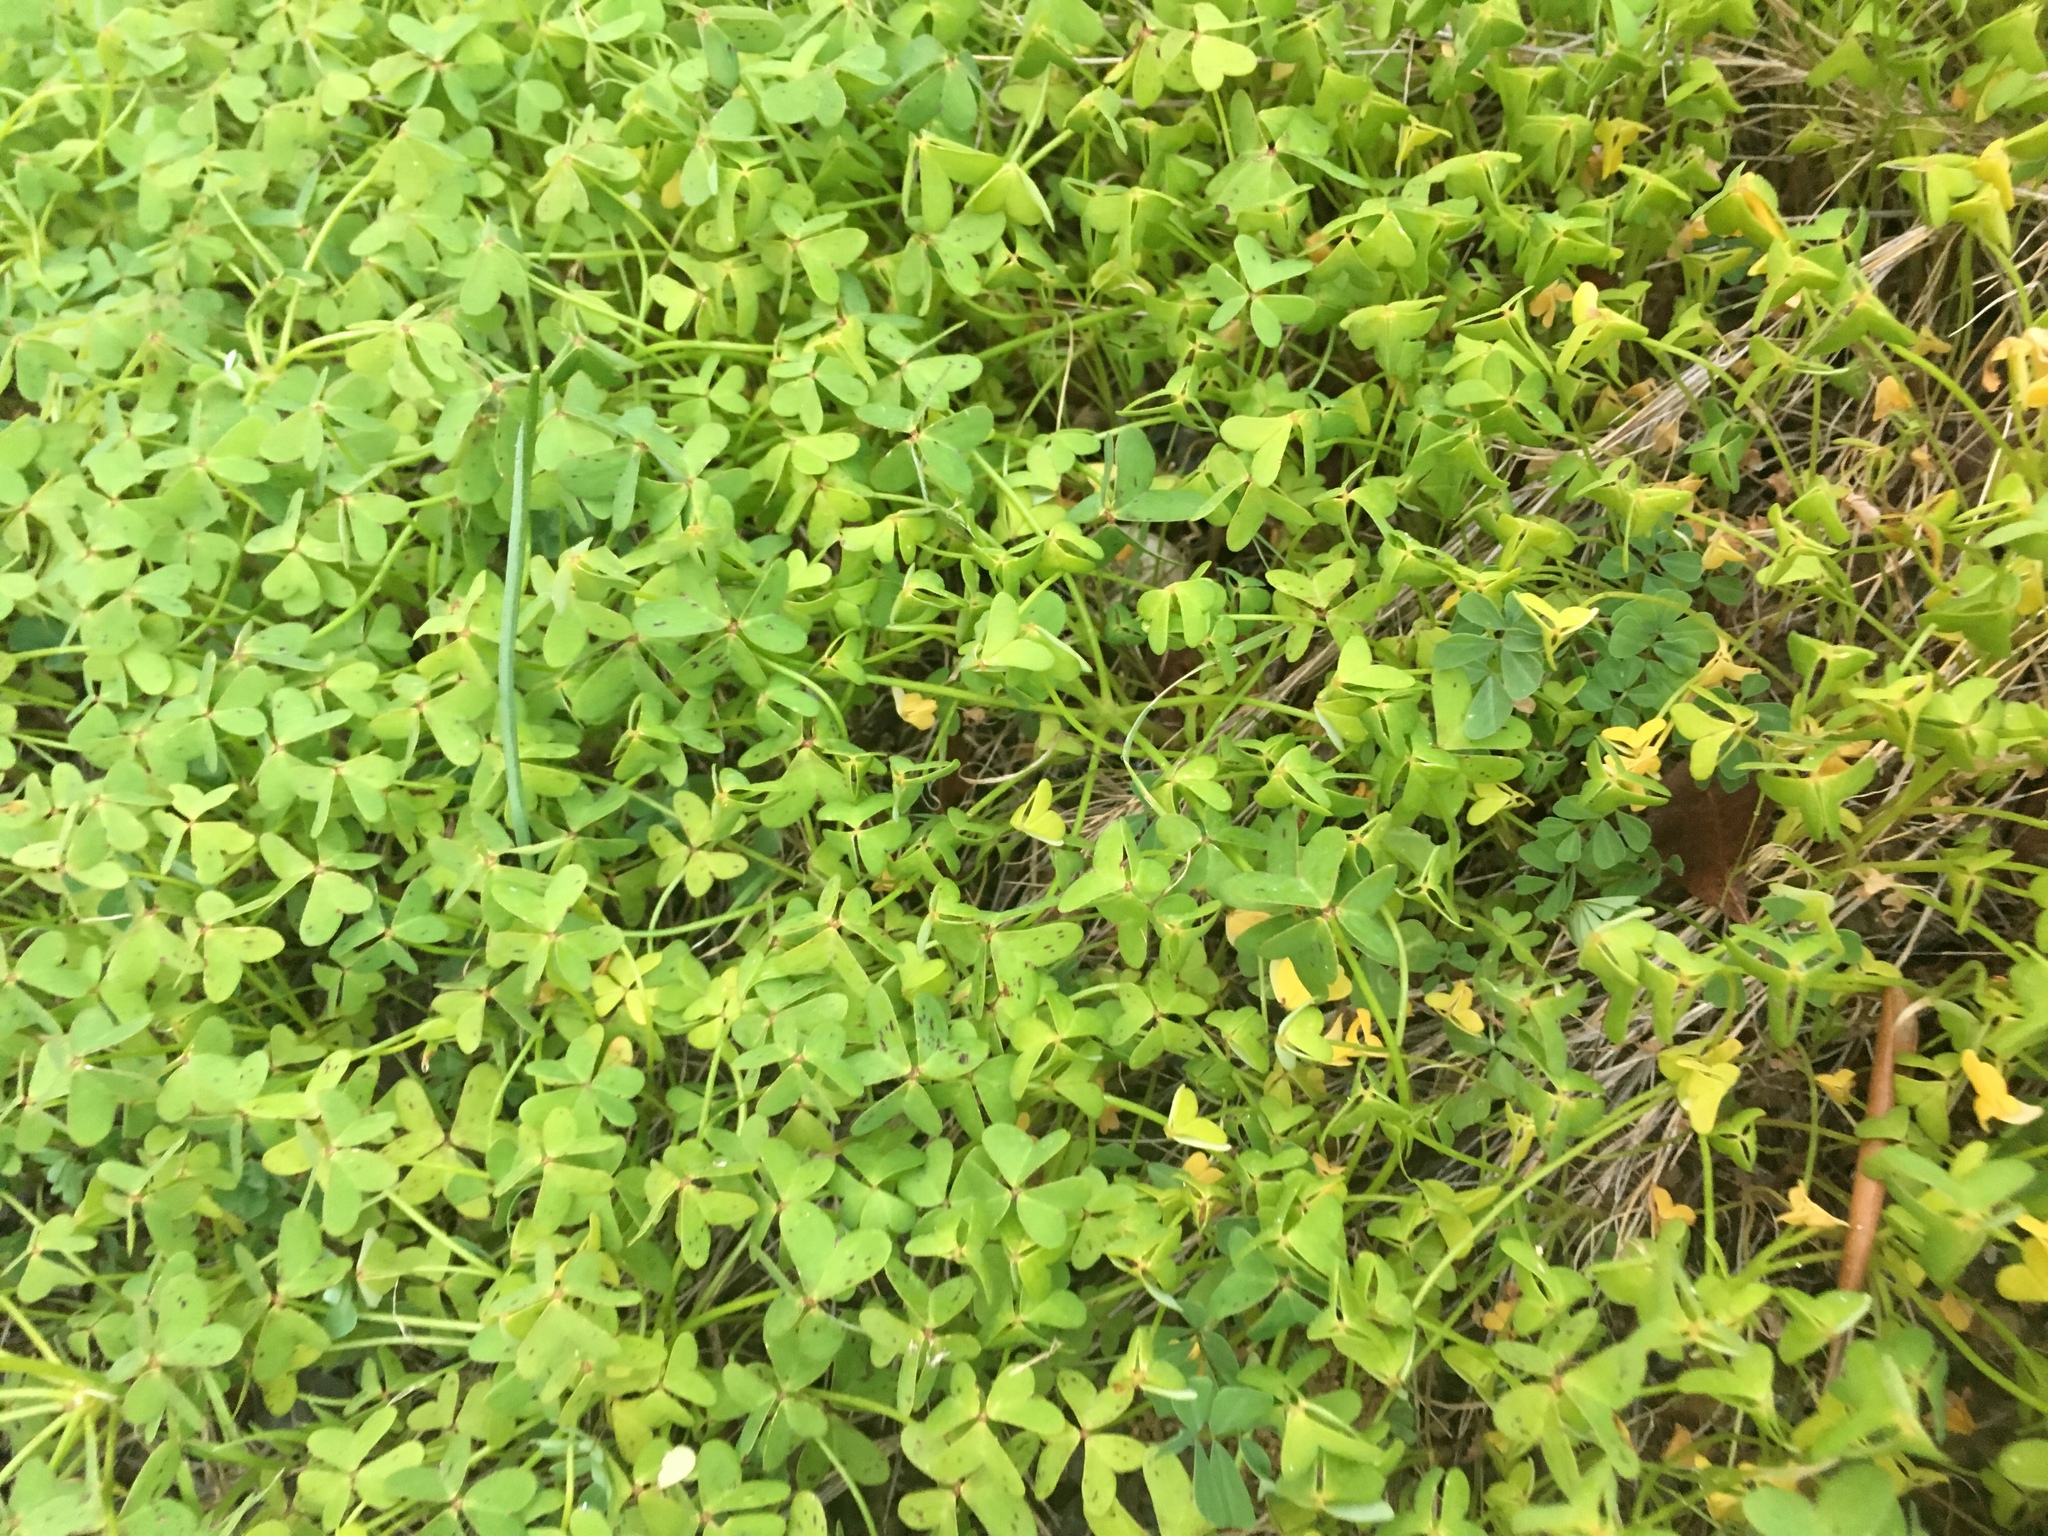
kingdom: Plantae
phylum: Tracheophyta
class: Magnoliopsida
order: Oxalidales
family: Oxalidaceae
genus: Oxalis
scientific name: Oxalis pes-caprae
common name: Bermuda-buttercup
